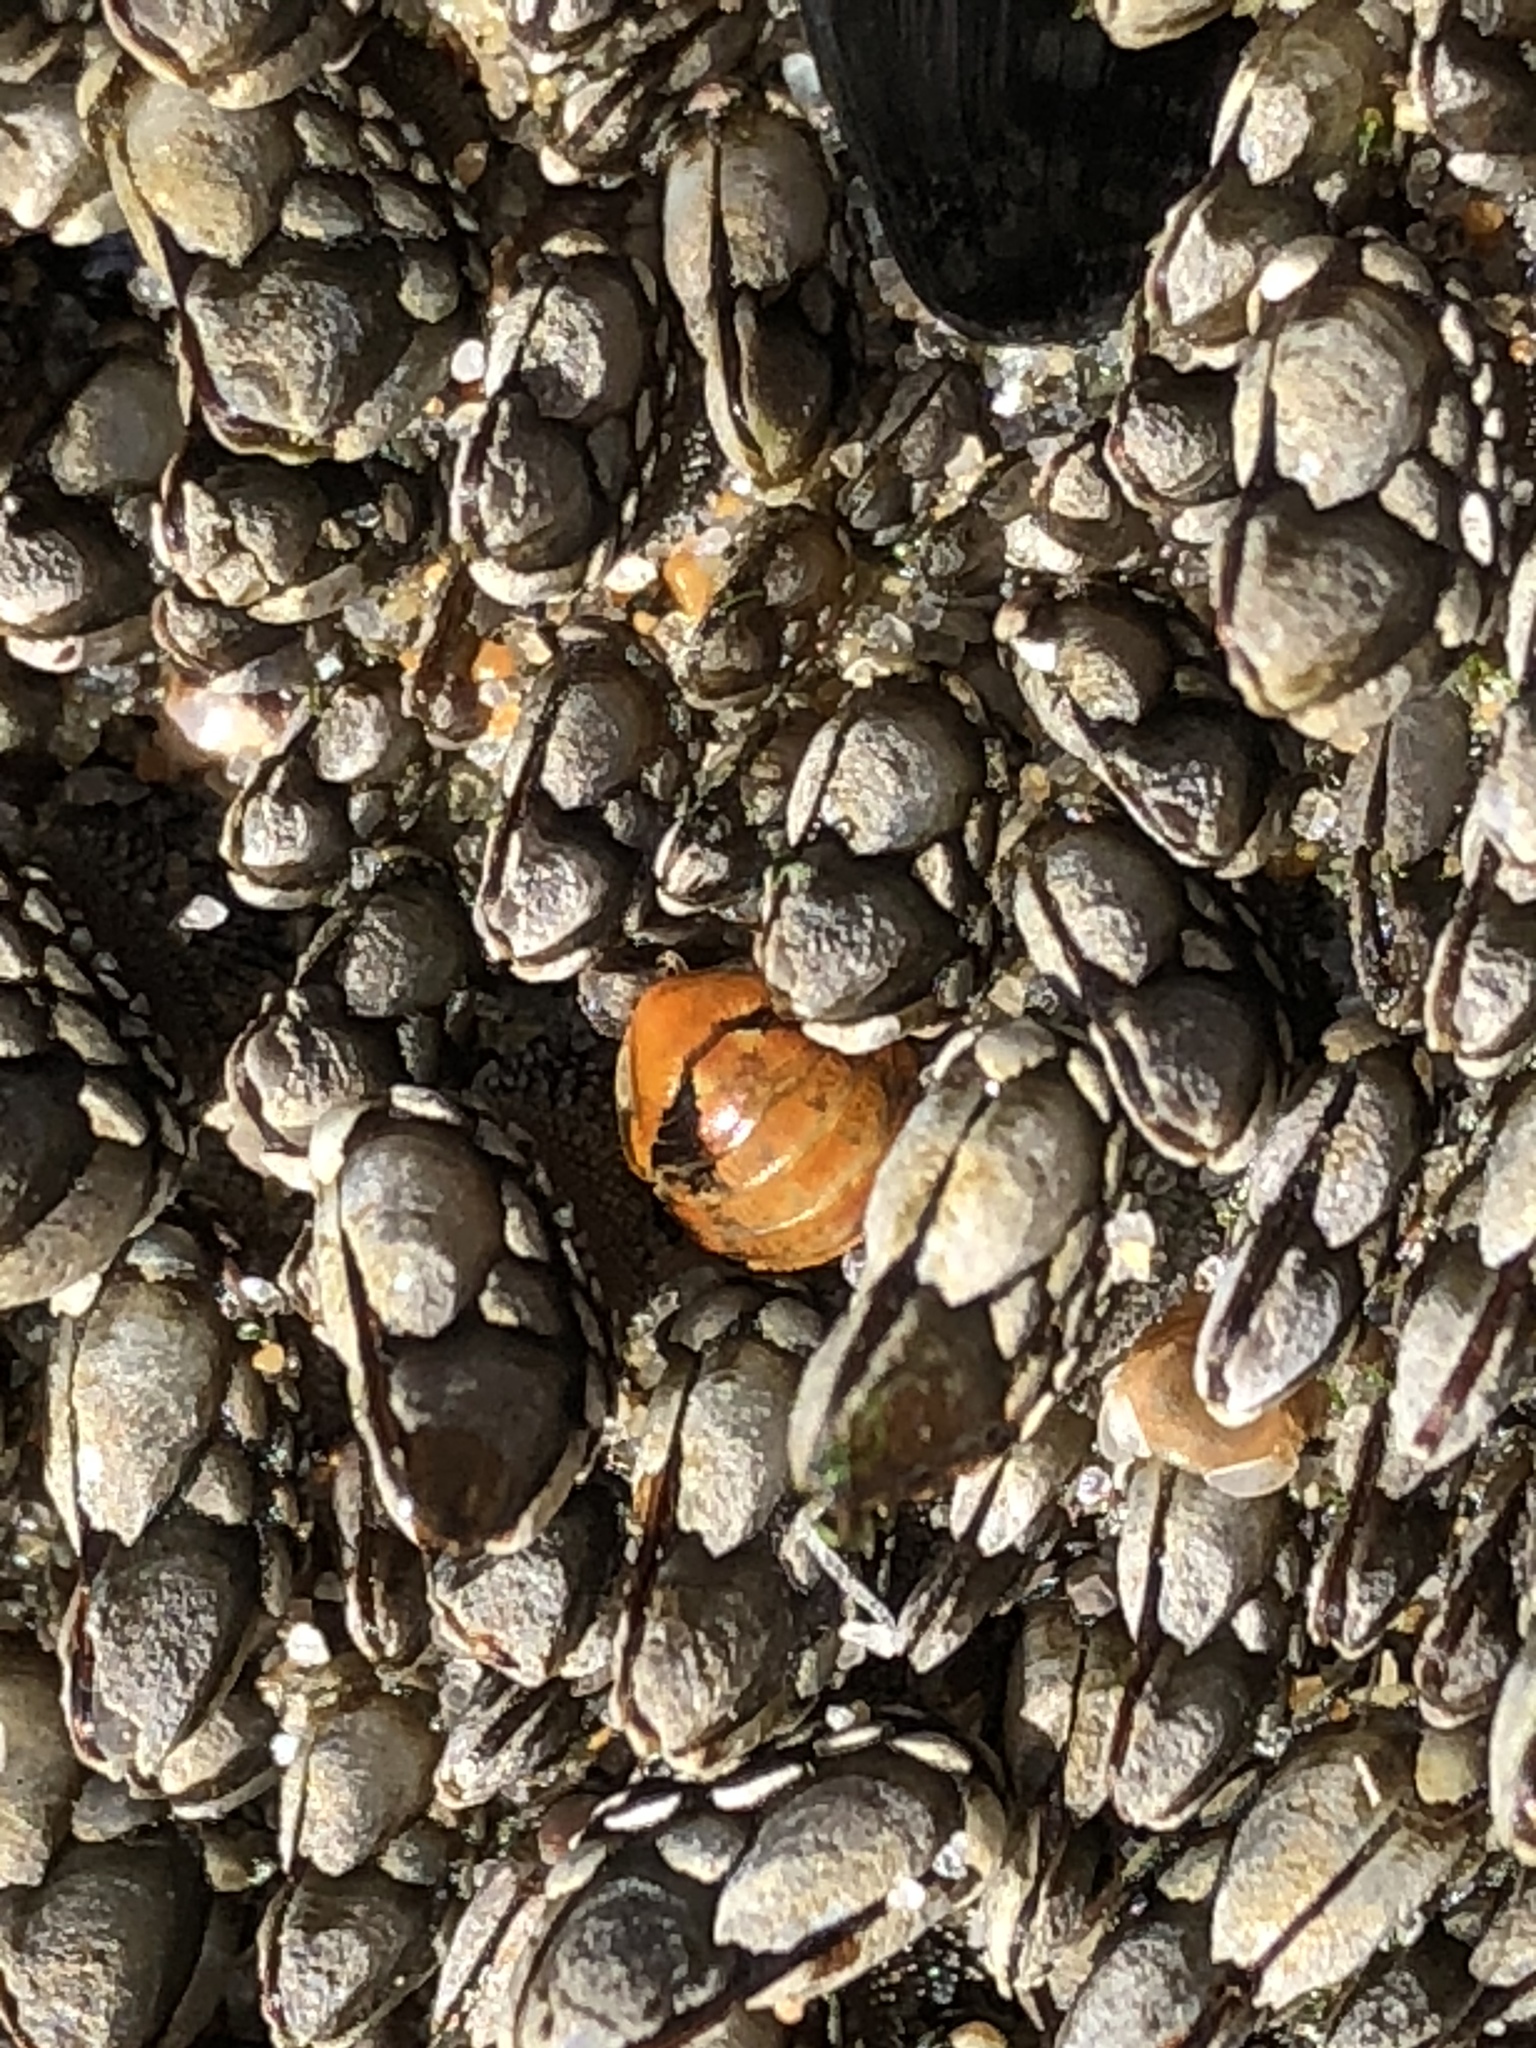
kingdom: Animalia
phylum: Arthropoda
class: Malacostraca
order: Decapoda
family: Palinuridae
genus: Panulirus
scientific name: Panulirus interruptus
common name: California spiny lobster
